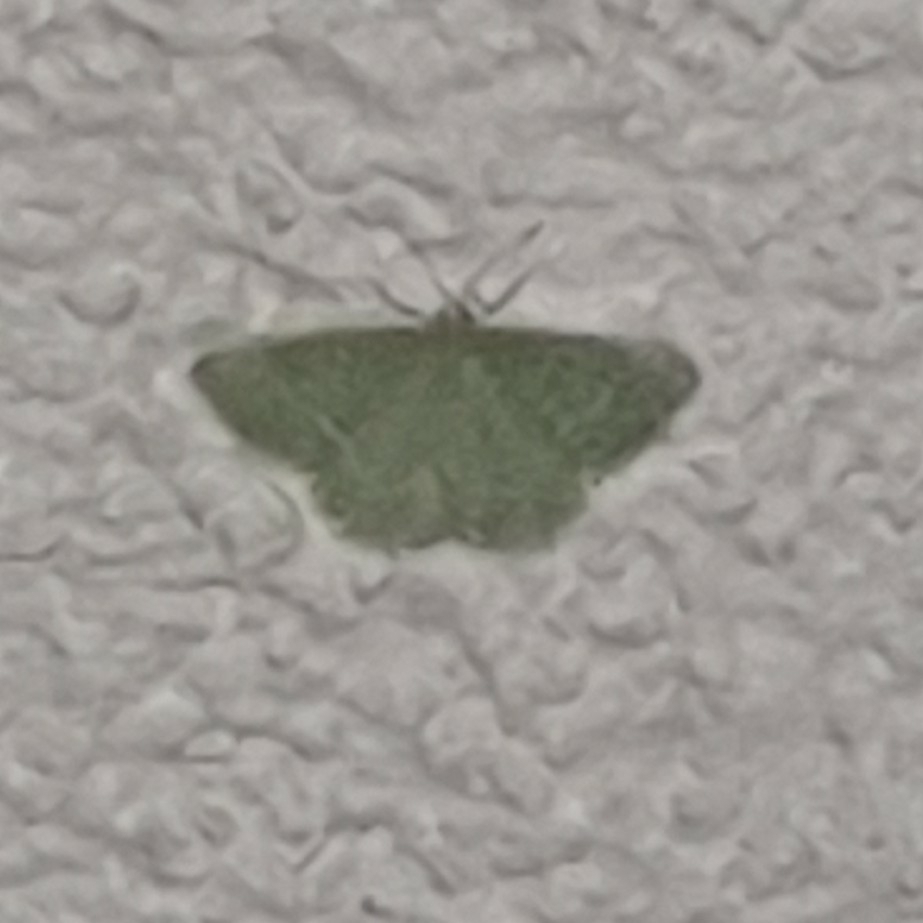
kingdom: Animalia
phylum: Arthropoda
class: Insecta
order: Lepidoptera
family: Geometridae
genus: Chlorissa
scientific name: Chlorissa etruscaria
